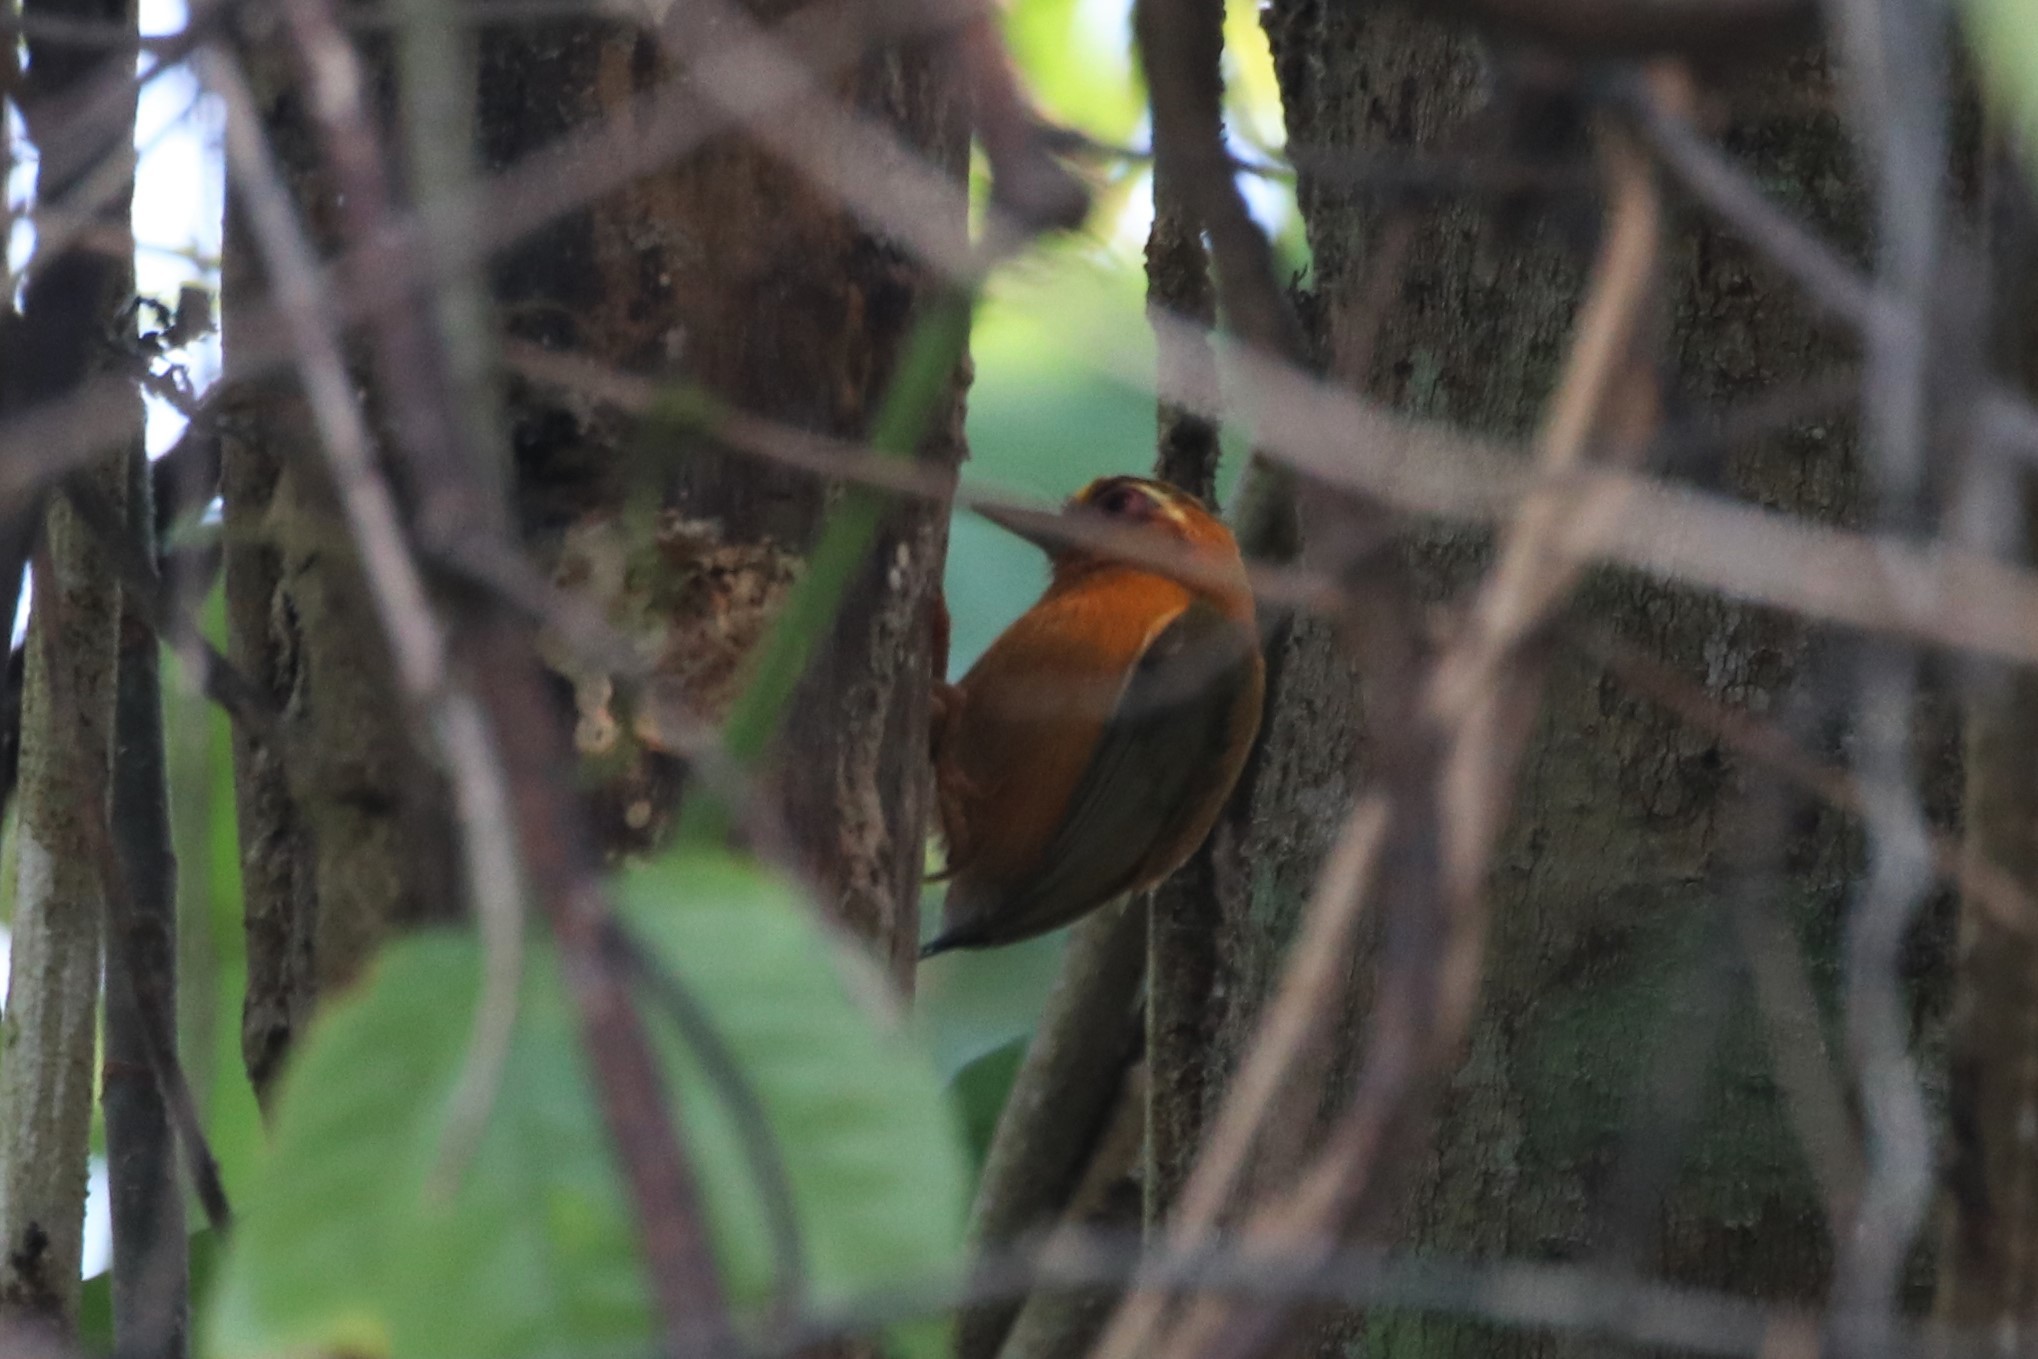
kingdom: Animalia
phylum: Chordata
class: Aves
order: Piciformes
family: Picidae
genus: Sasia
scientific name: Sasia ochracea
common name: White-browed piculet
